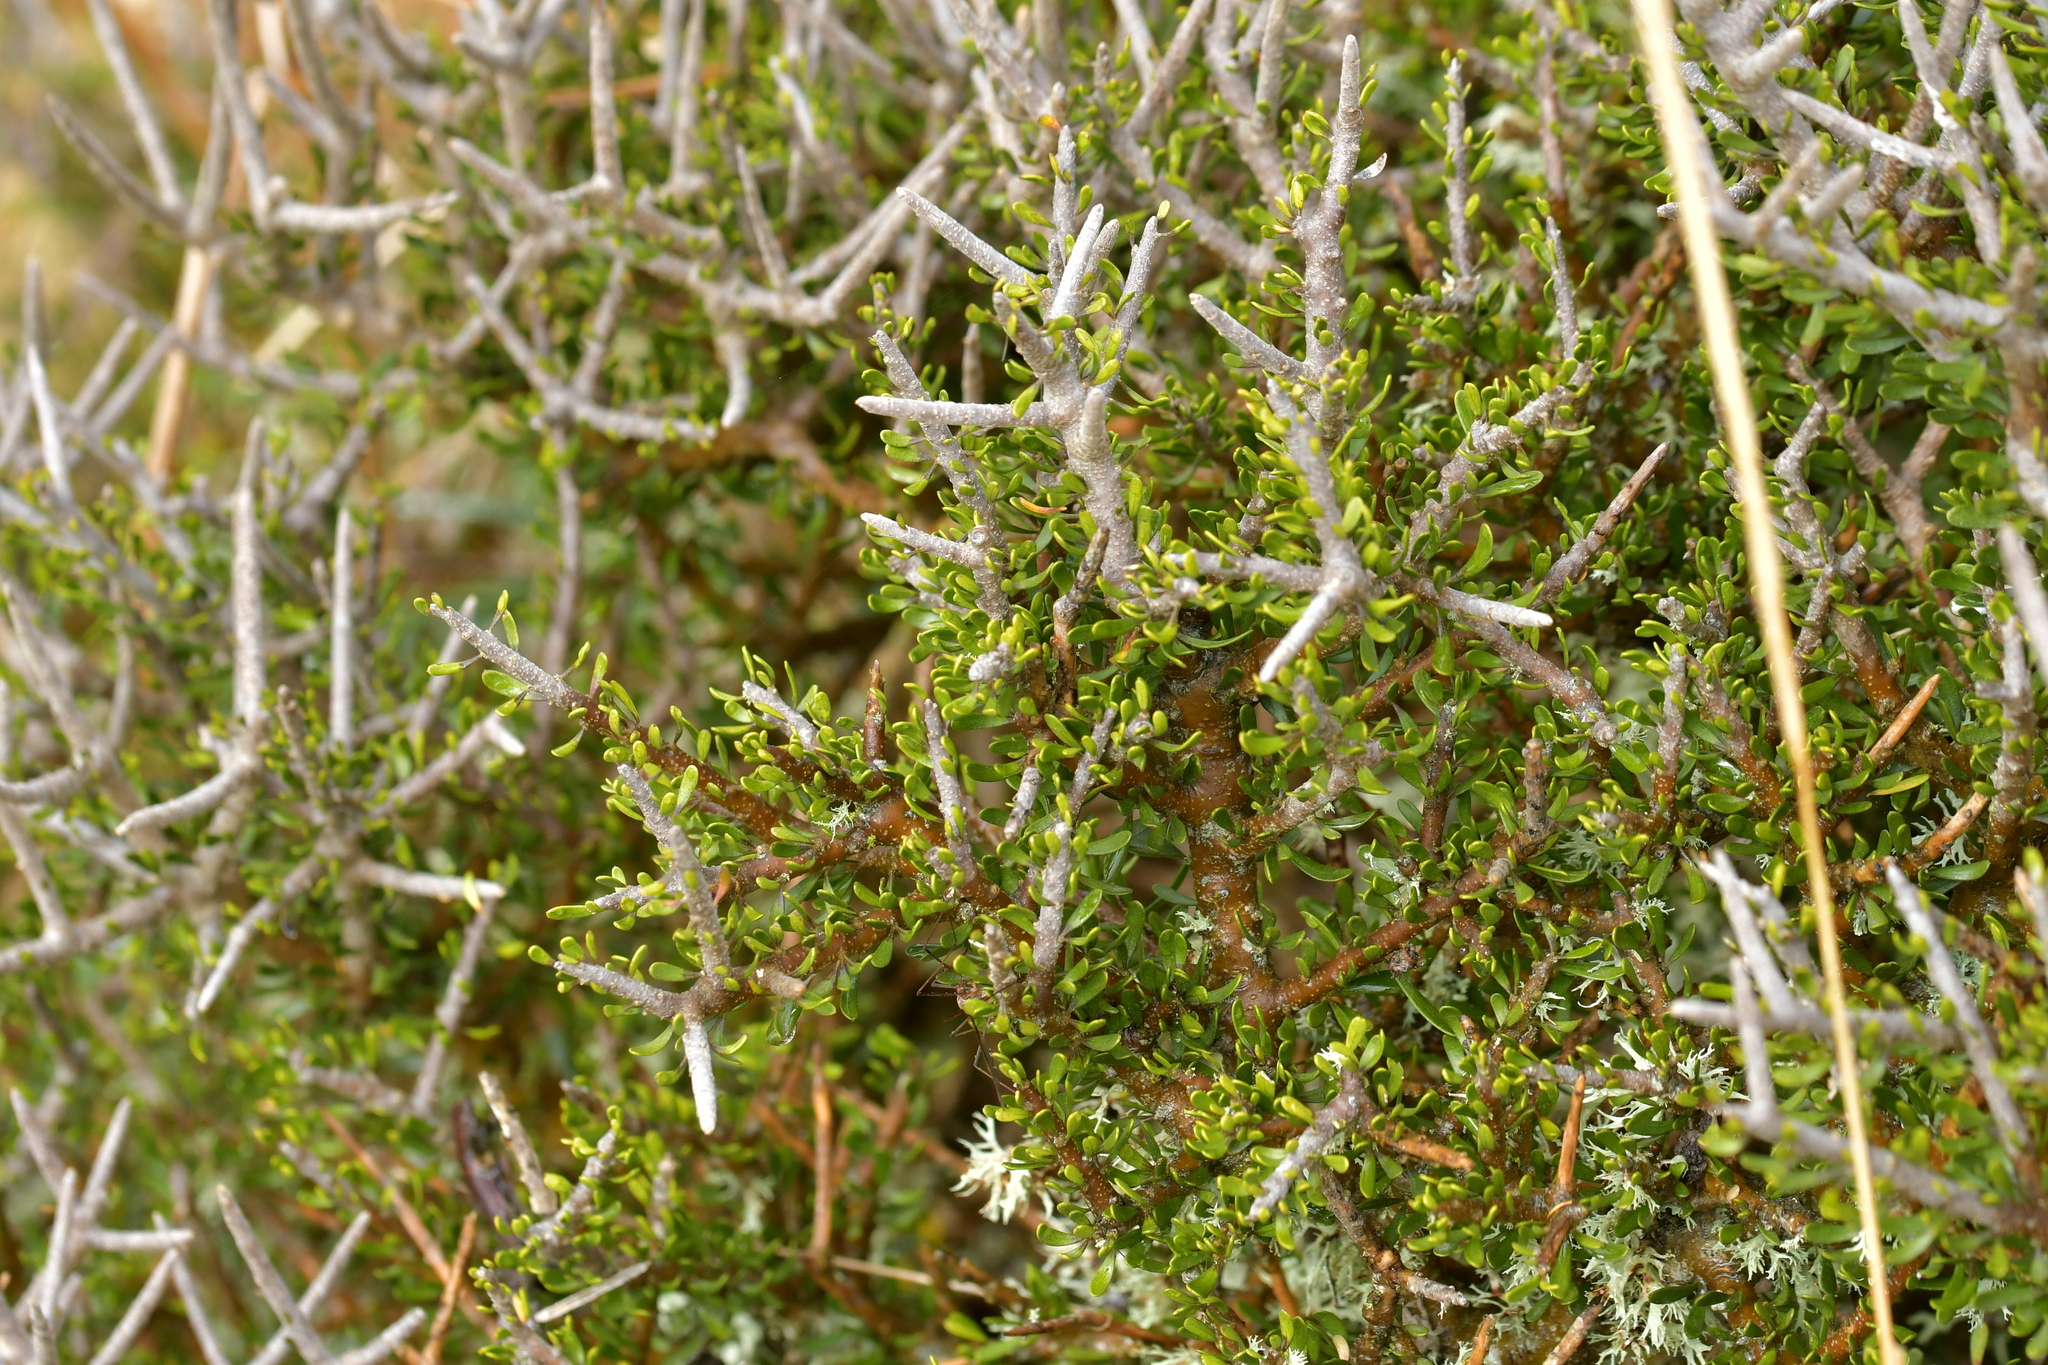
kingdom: Plantae
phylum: Tracheophyta
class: Magnoliopsida
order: Malpighiales
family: Violaceae
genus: Melicytus
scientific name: Melicytus alpinus
